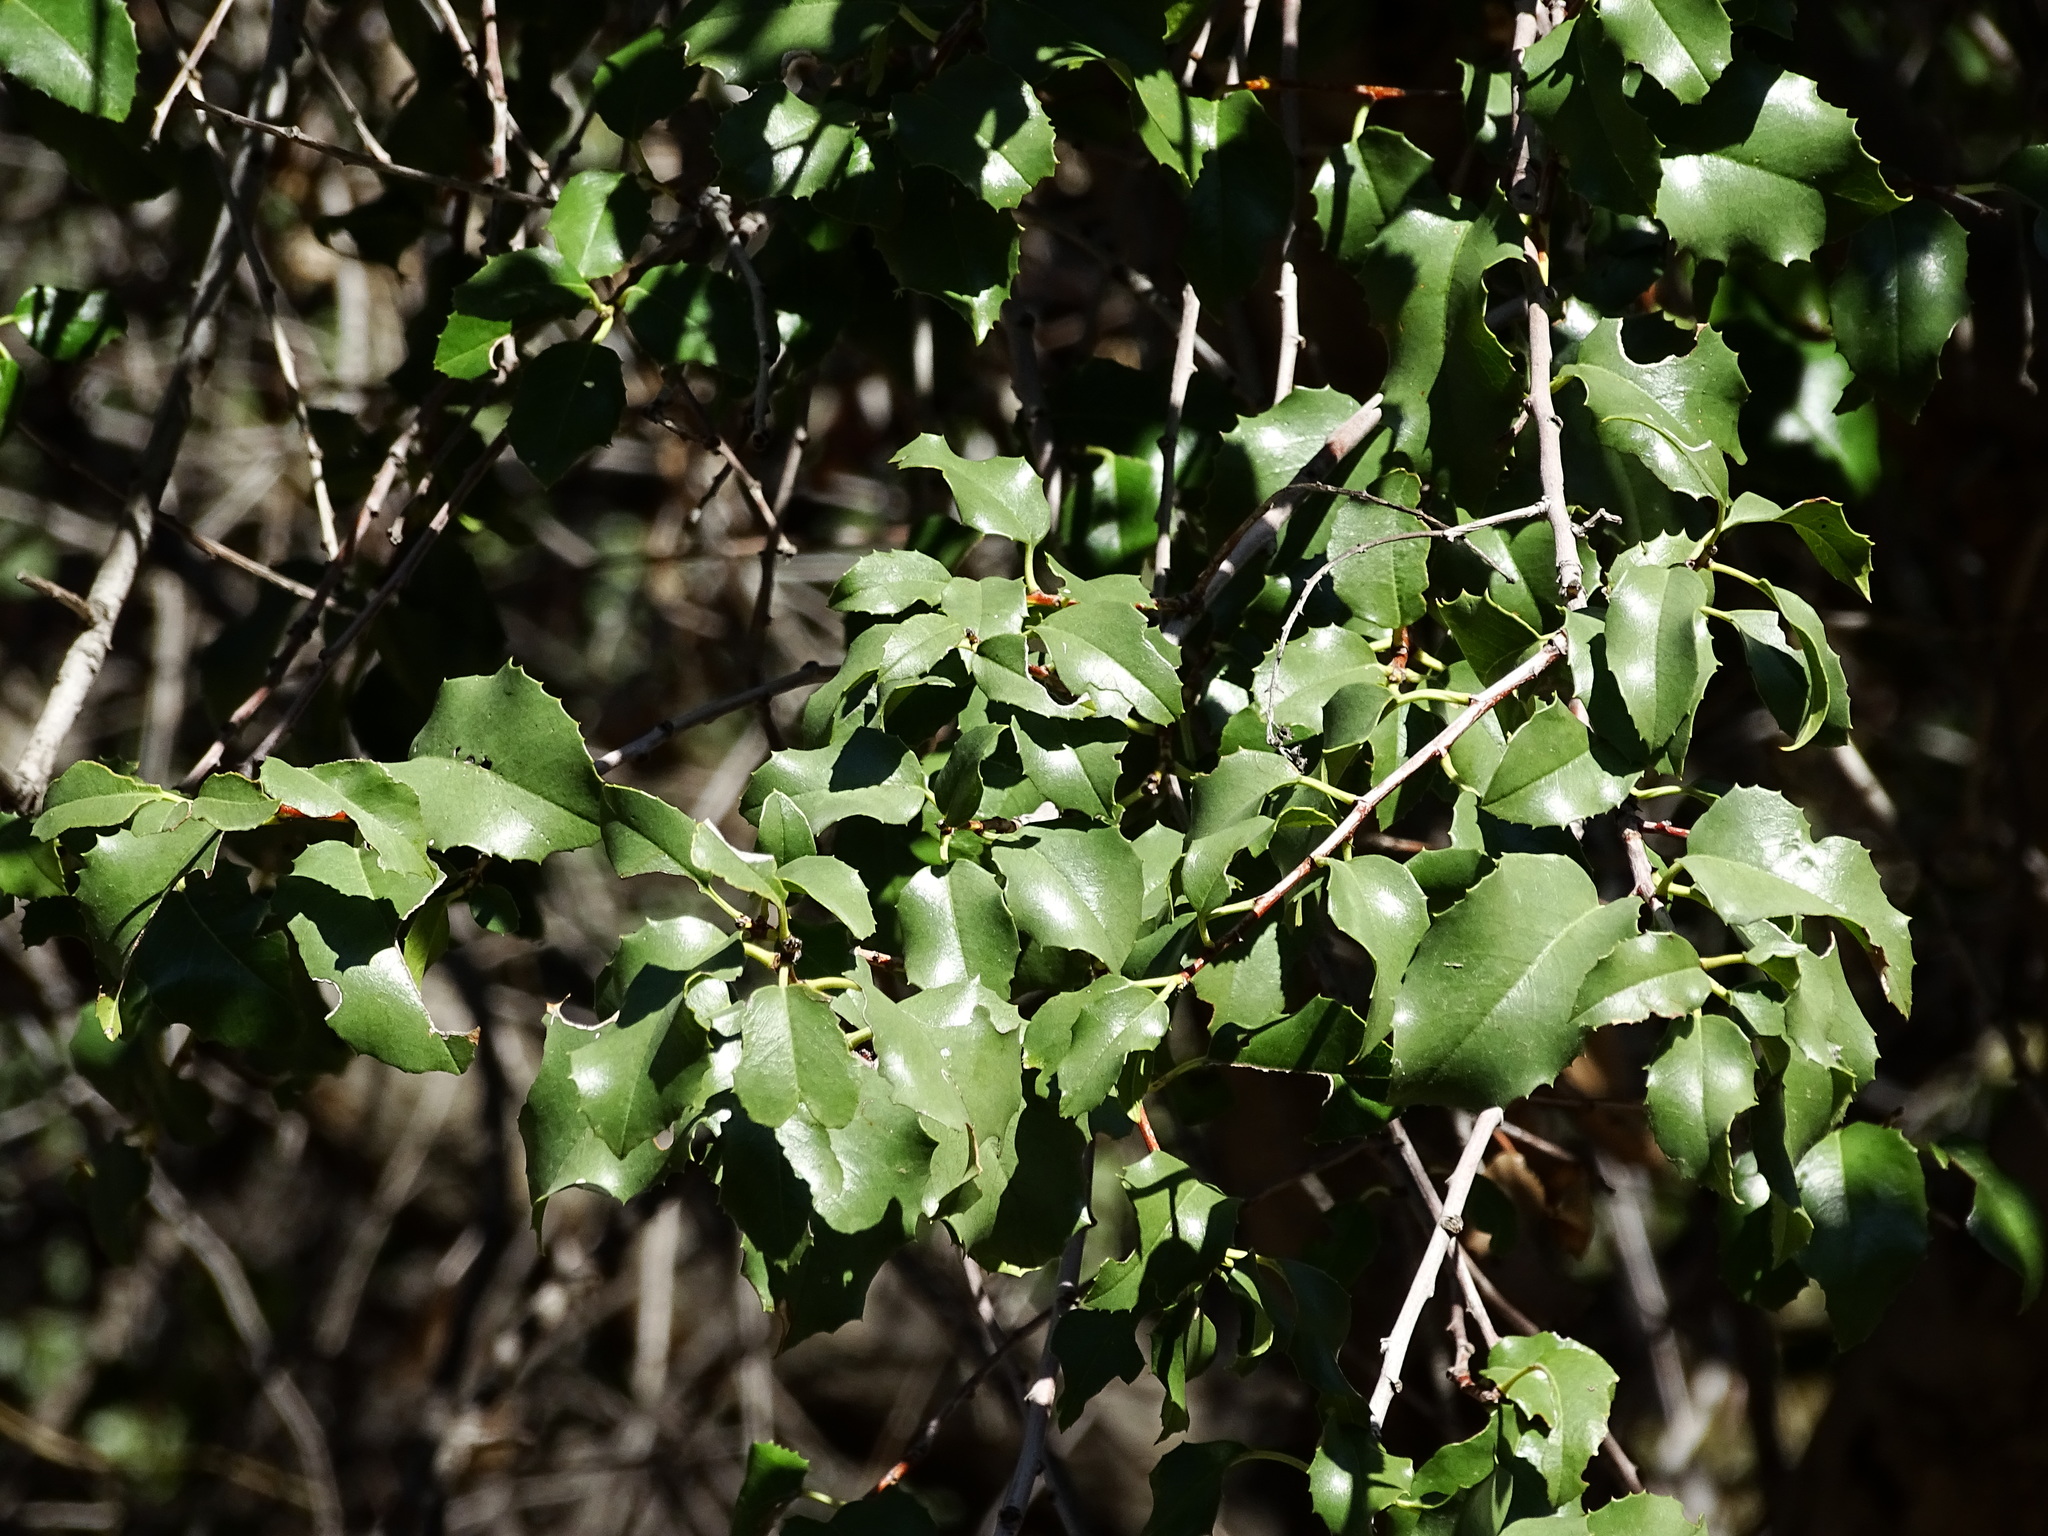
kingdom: Plantae
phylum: Tracheophyta
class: Magnoliopsida
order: Rosales
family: Rosaceae
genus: Prunus
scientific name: Prunus ilicifolia
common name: Hollyleaf cherry
